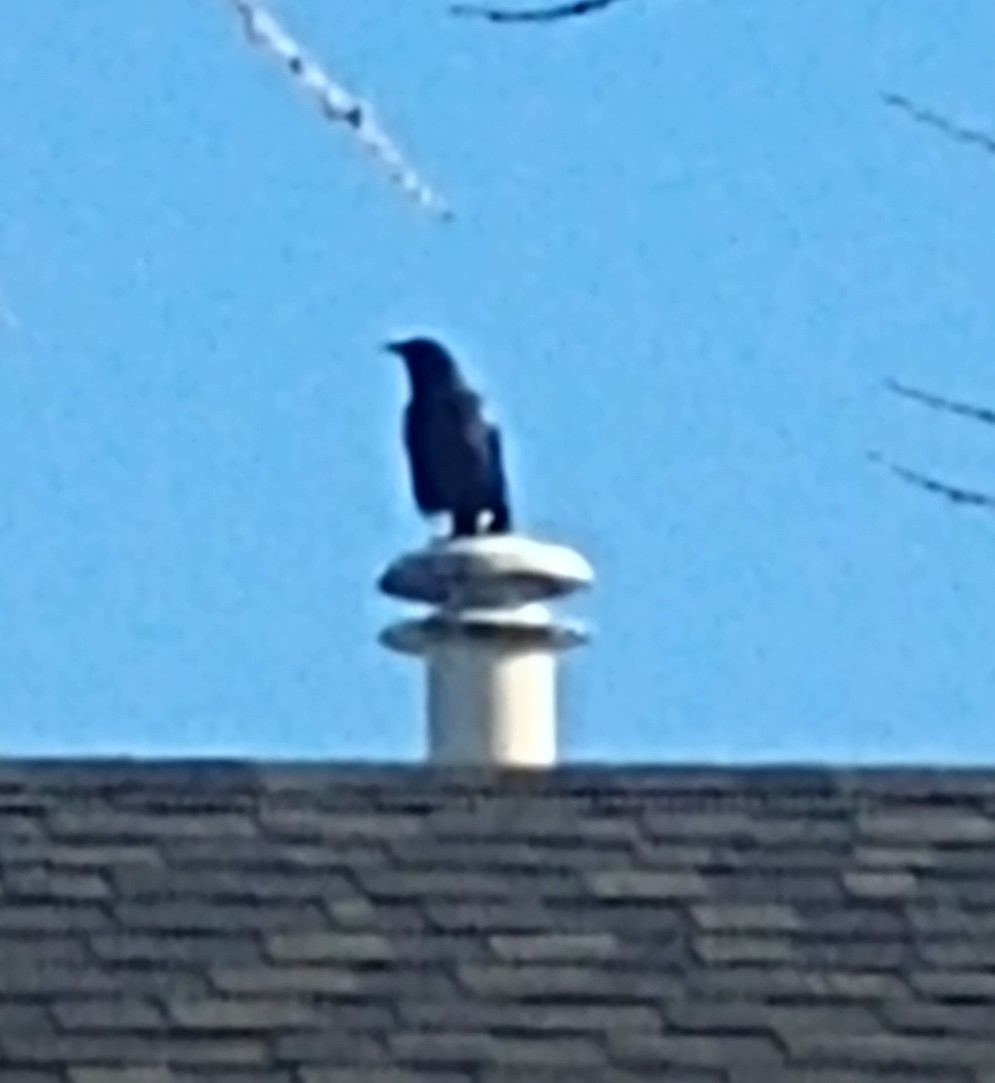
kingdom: Animalia
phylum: Chordata
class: Aves
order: Passeriformes
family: Corvidae
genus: Corvus
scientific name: Corvus brachyrhynchos
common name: American crow
